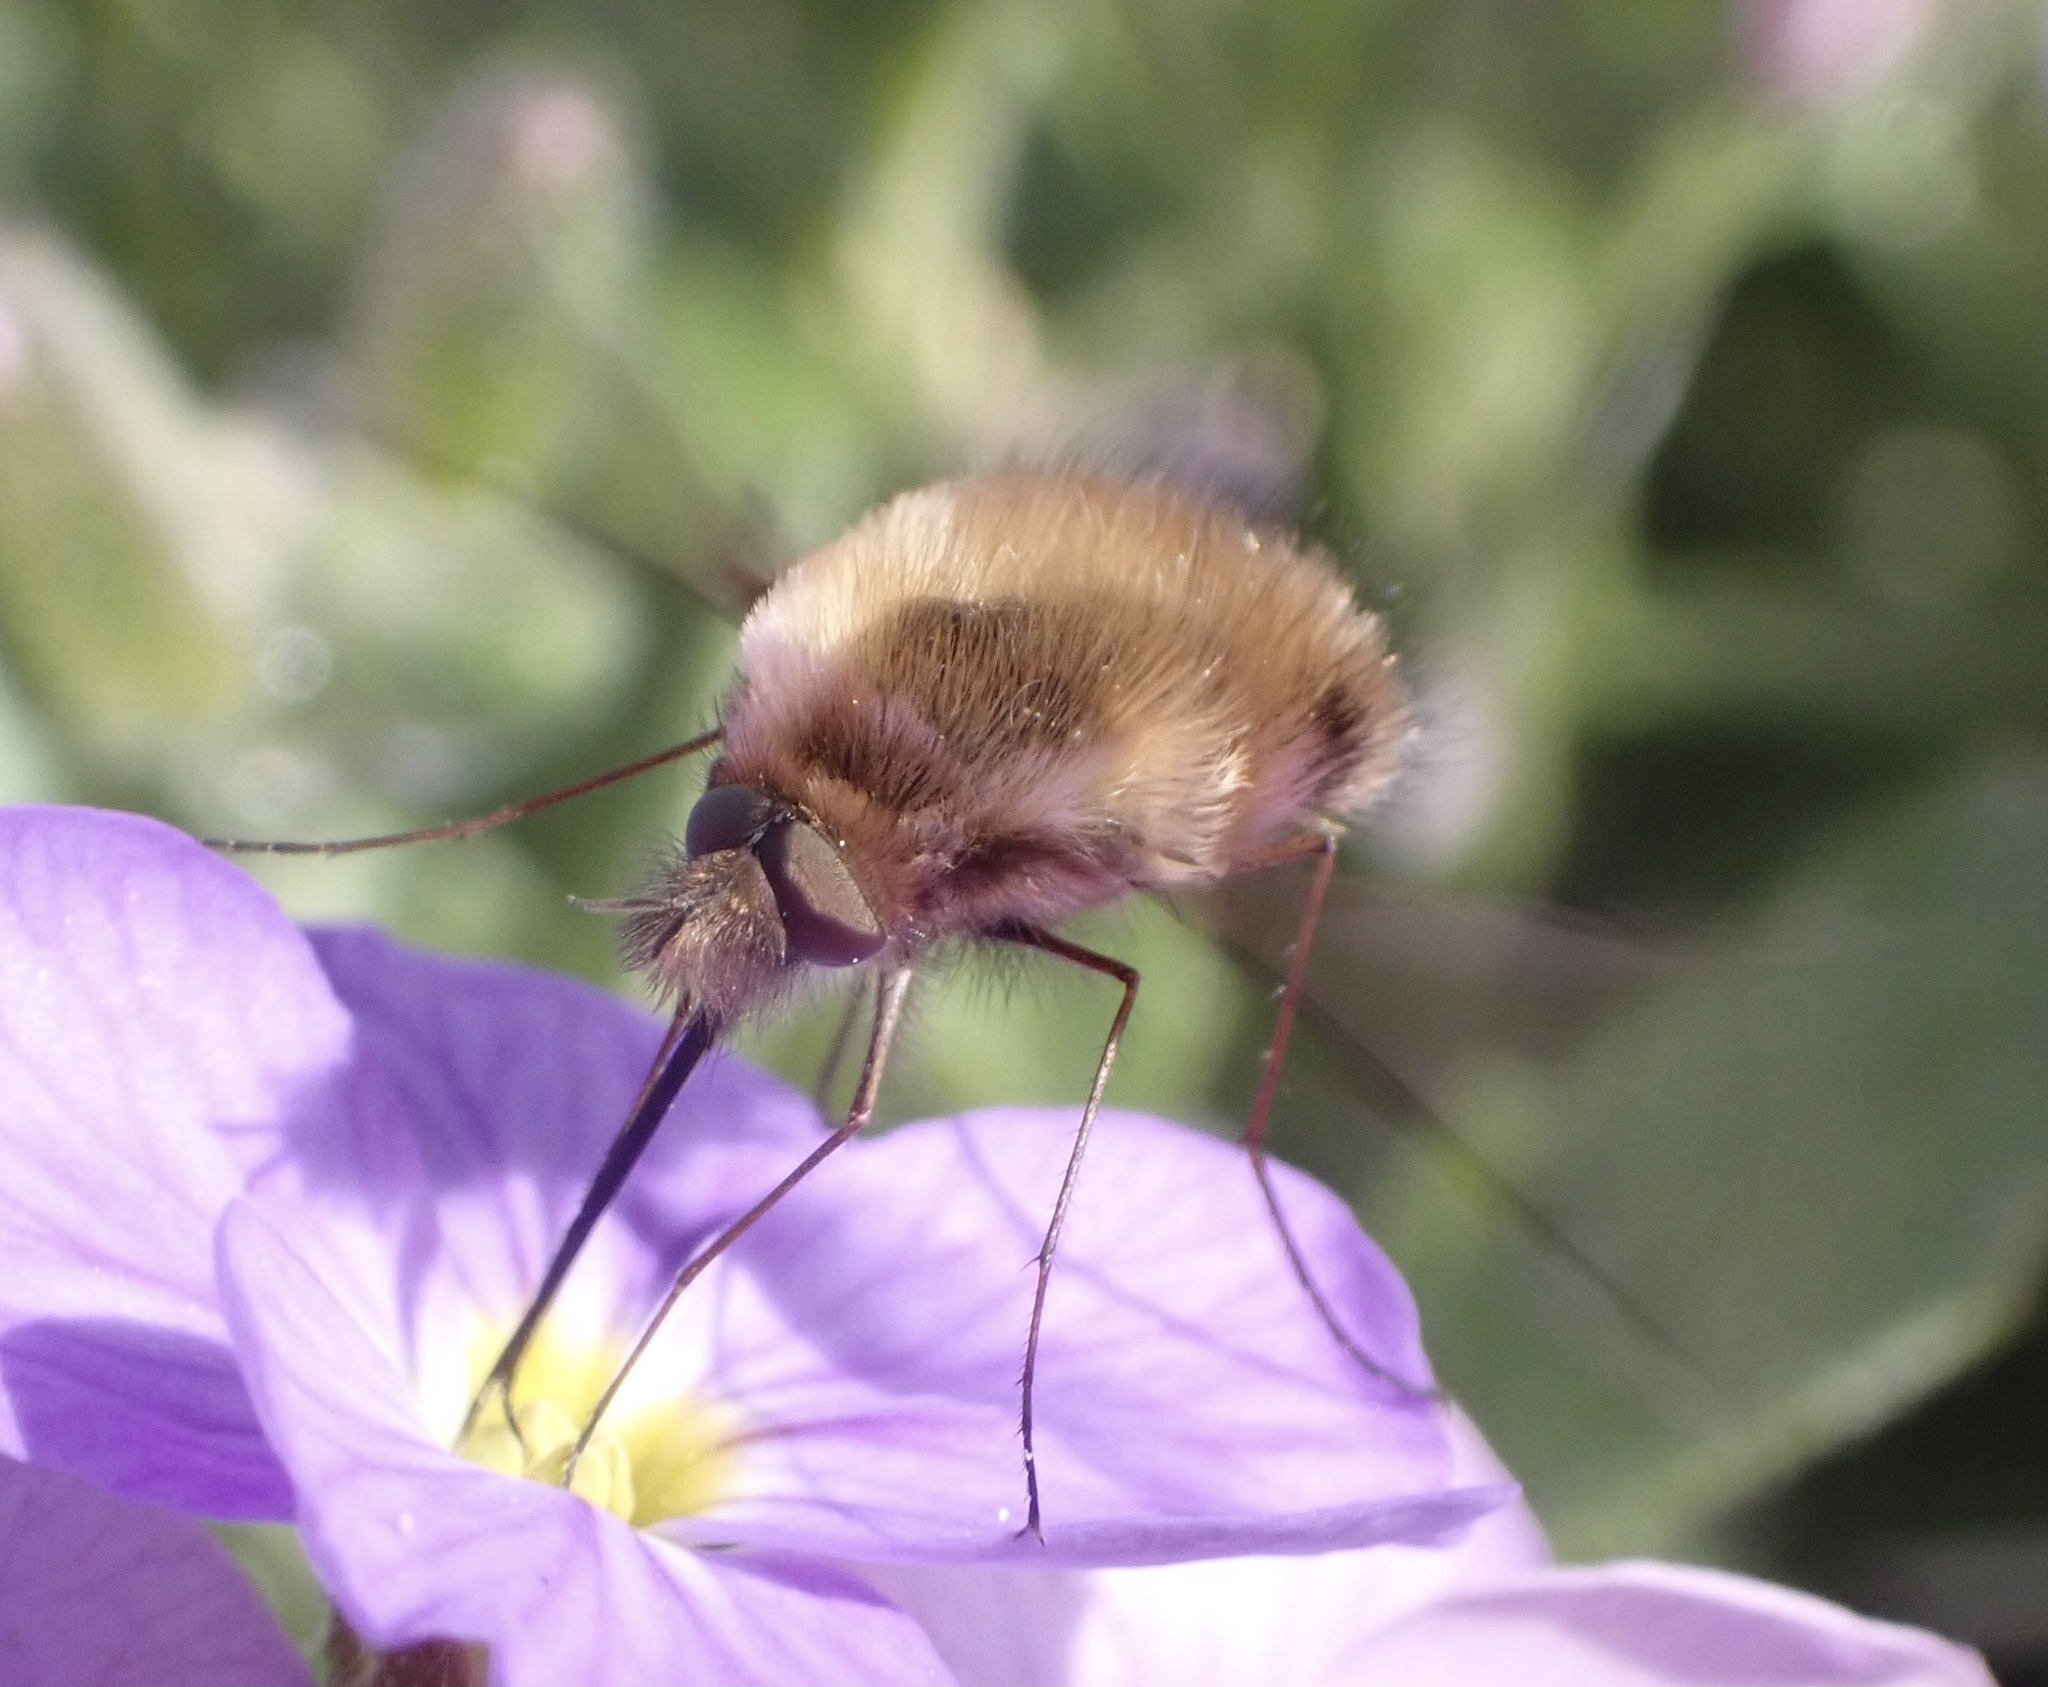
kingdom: Animalia
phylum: Arthropoda
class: Insecta
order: Diptera
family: Bombyliidae
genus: Bombylius
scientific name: Bombylius major
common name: Bee fly
